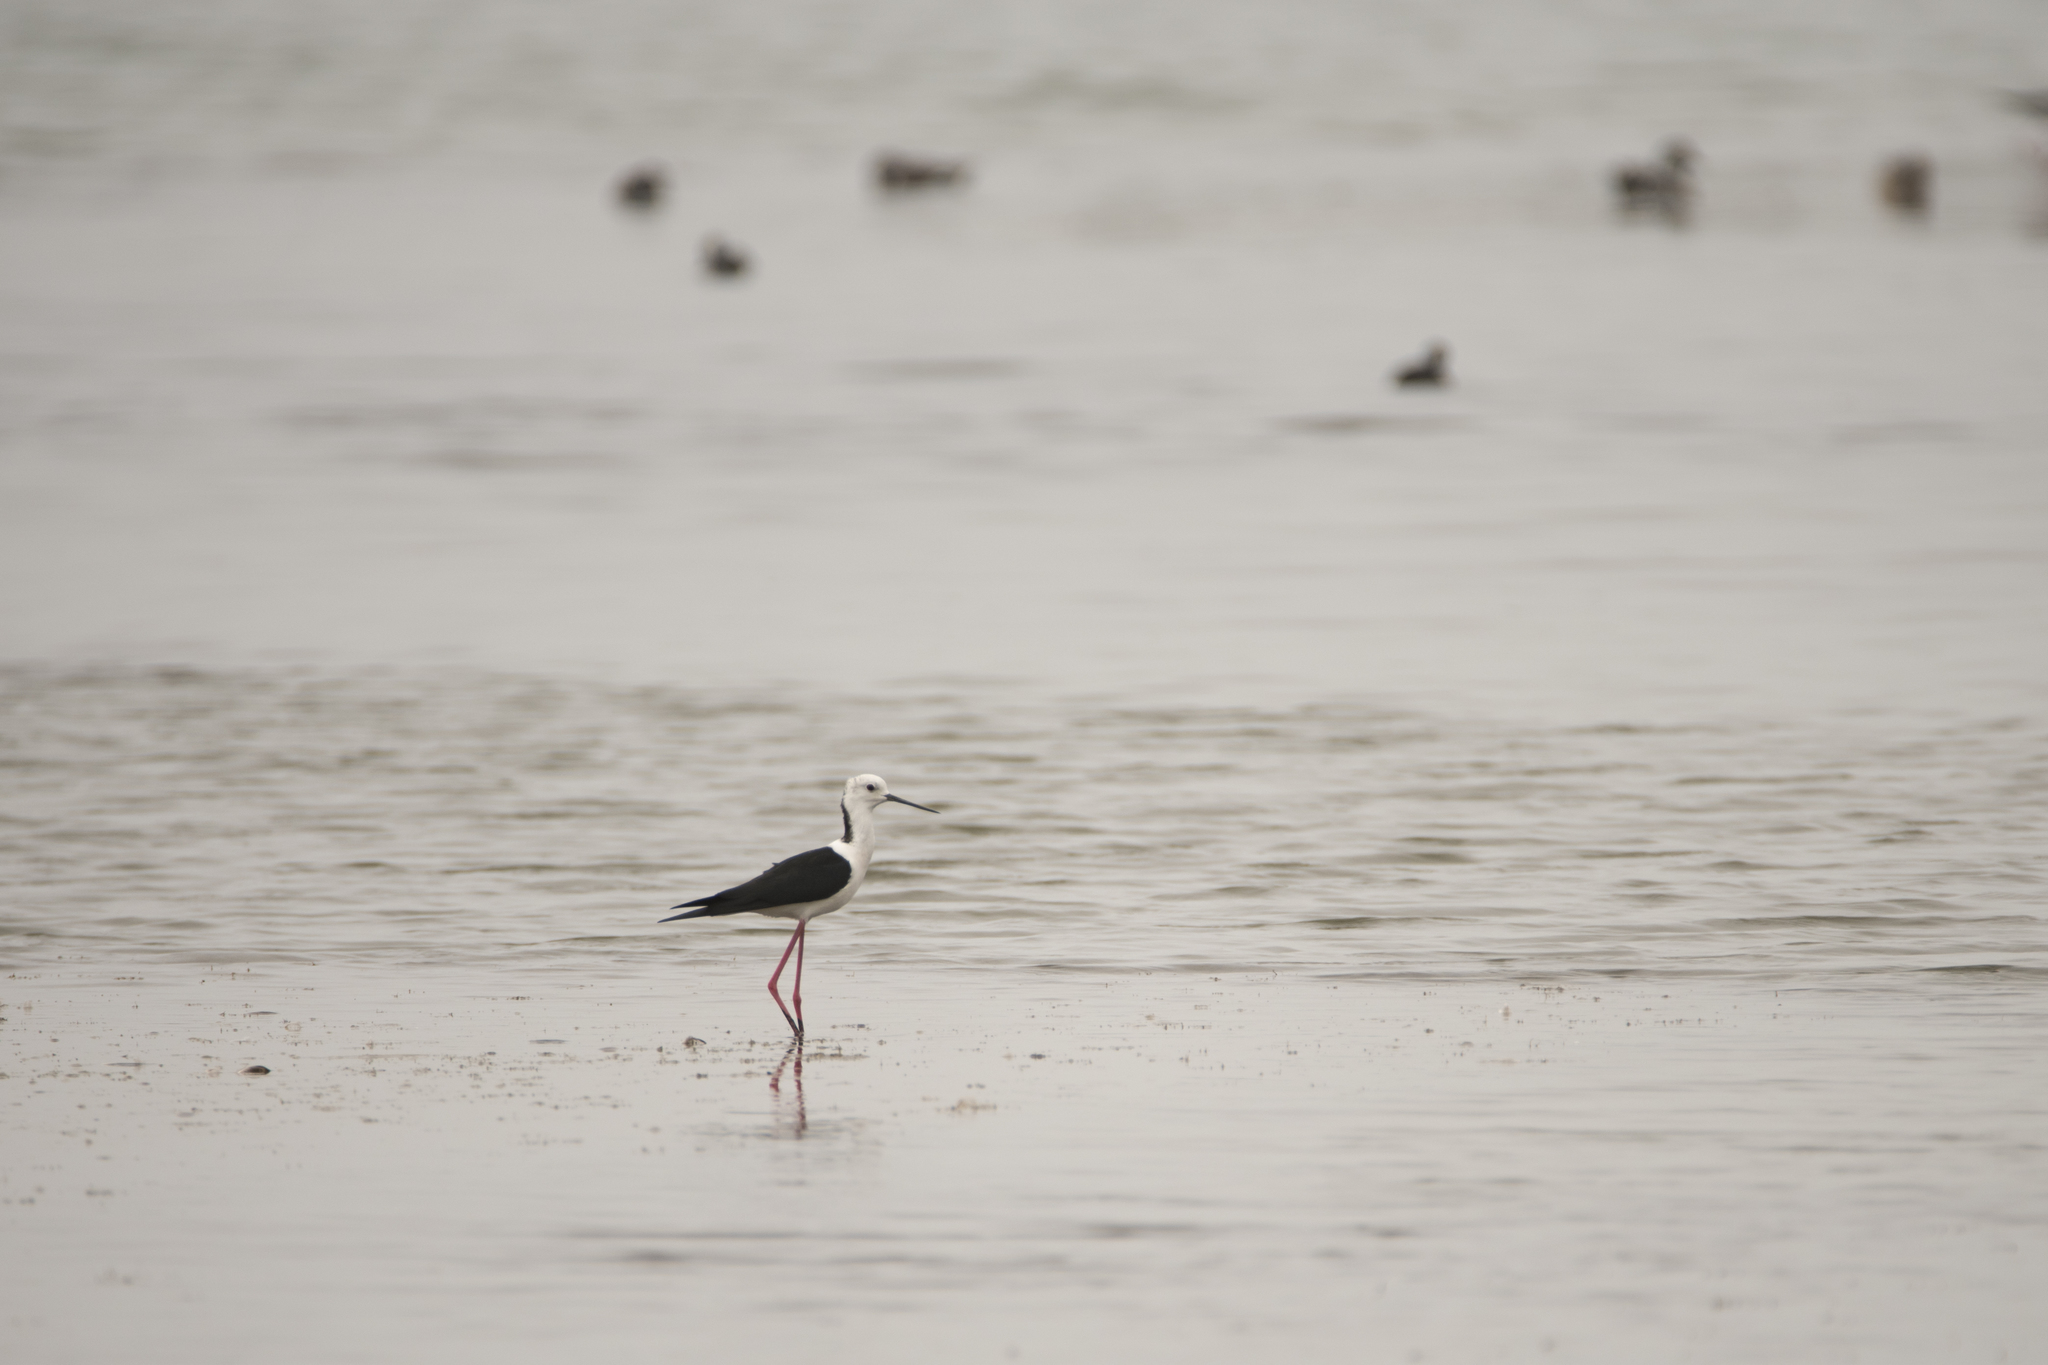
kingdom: Animalia
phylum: Chordata
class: Aves
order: Charadriiformes
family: Recurvirostridae
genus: Himantopus
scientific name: Himantopus himantopus
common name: Black-winged stilt
